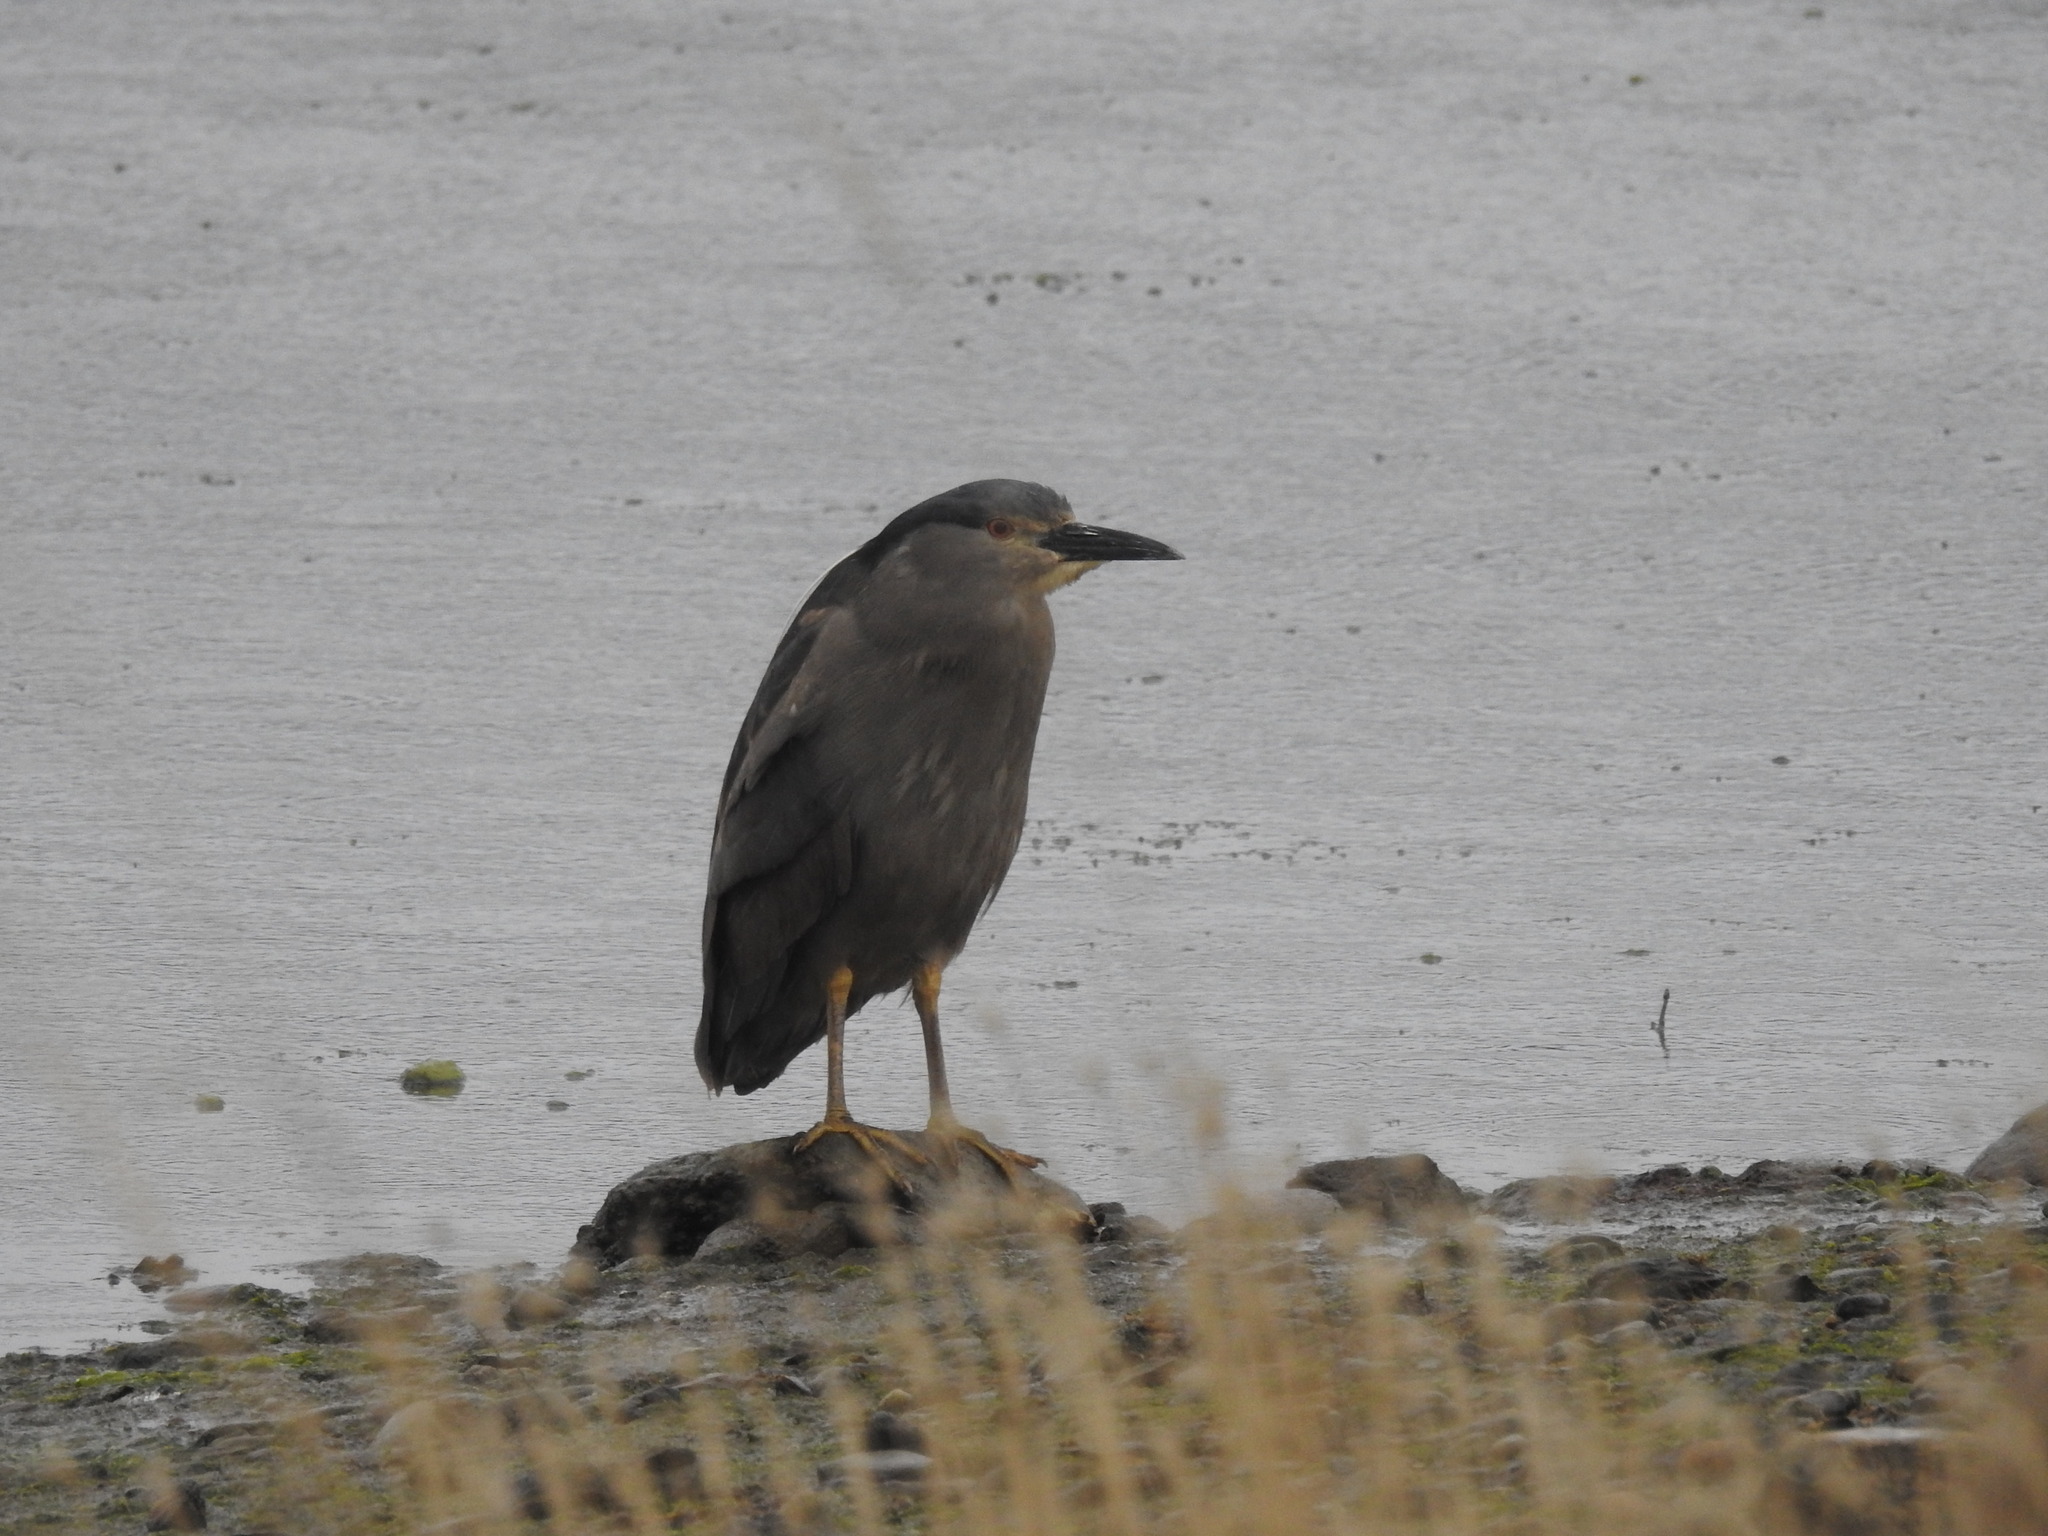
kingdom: Animalia
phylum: Chordata
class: Aves
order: Pelecaniformes
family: Ardeidae
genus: Nycticorax
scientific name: Nycticorax nycticorax
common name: Black-crowned night heron
